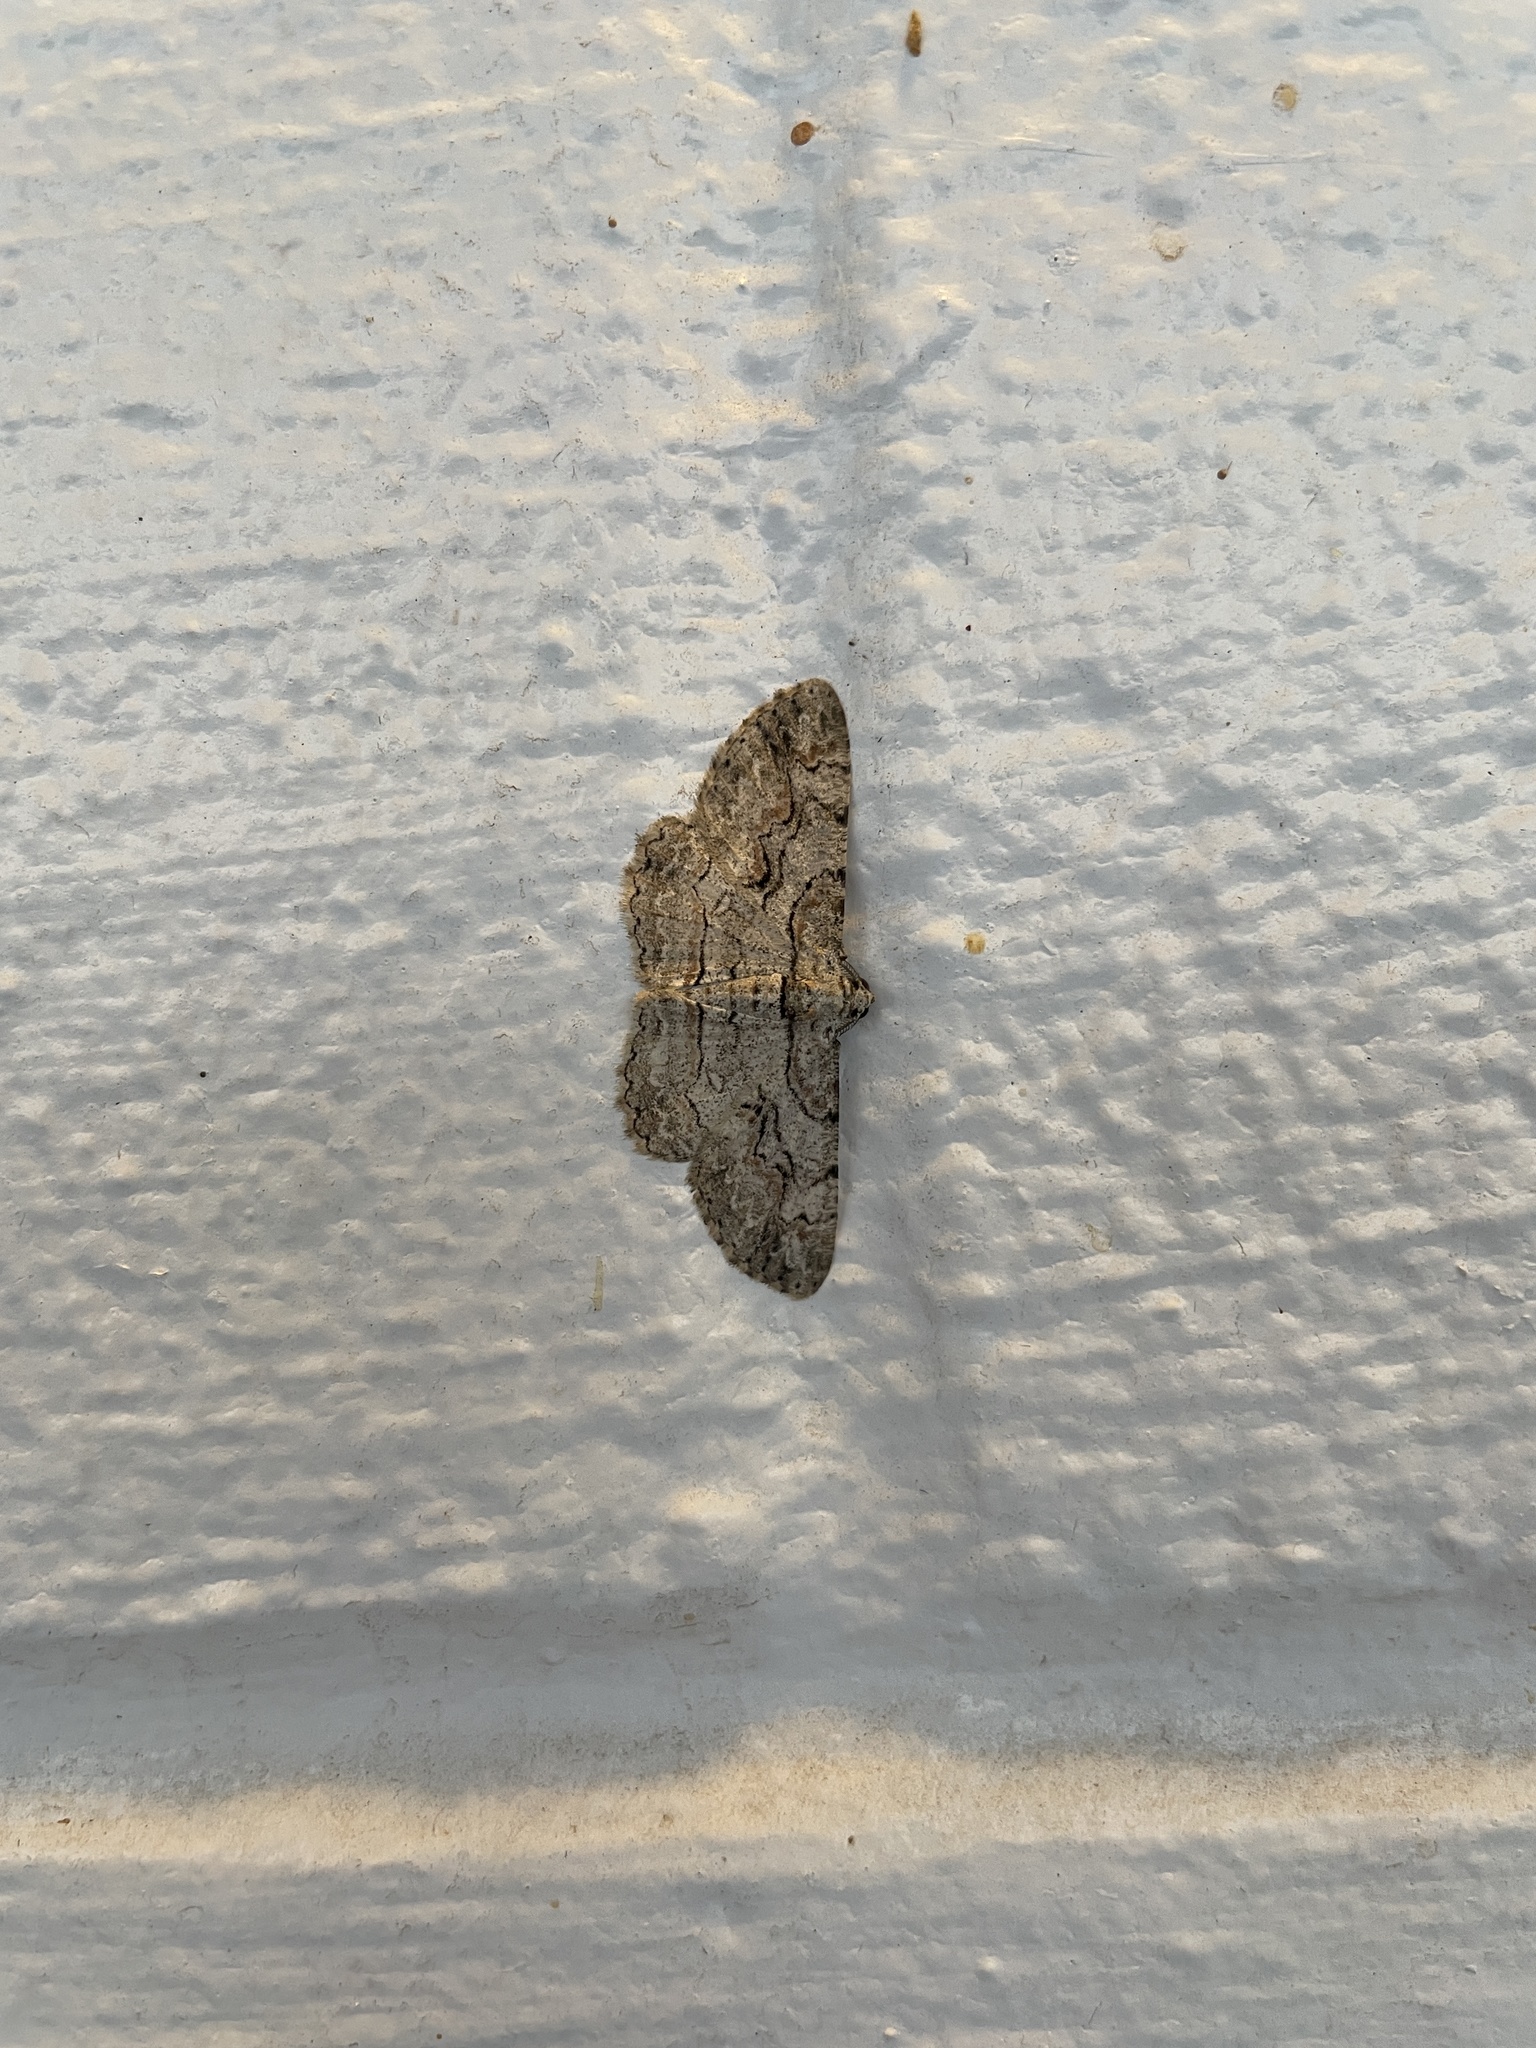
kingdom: Animalia
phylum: Arthropoda
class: Insecta
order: Lepidoptera
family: Geometridae
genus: Iridopsis
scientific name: Iridopsis defectaria
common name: Brown-shaded gray
